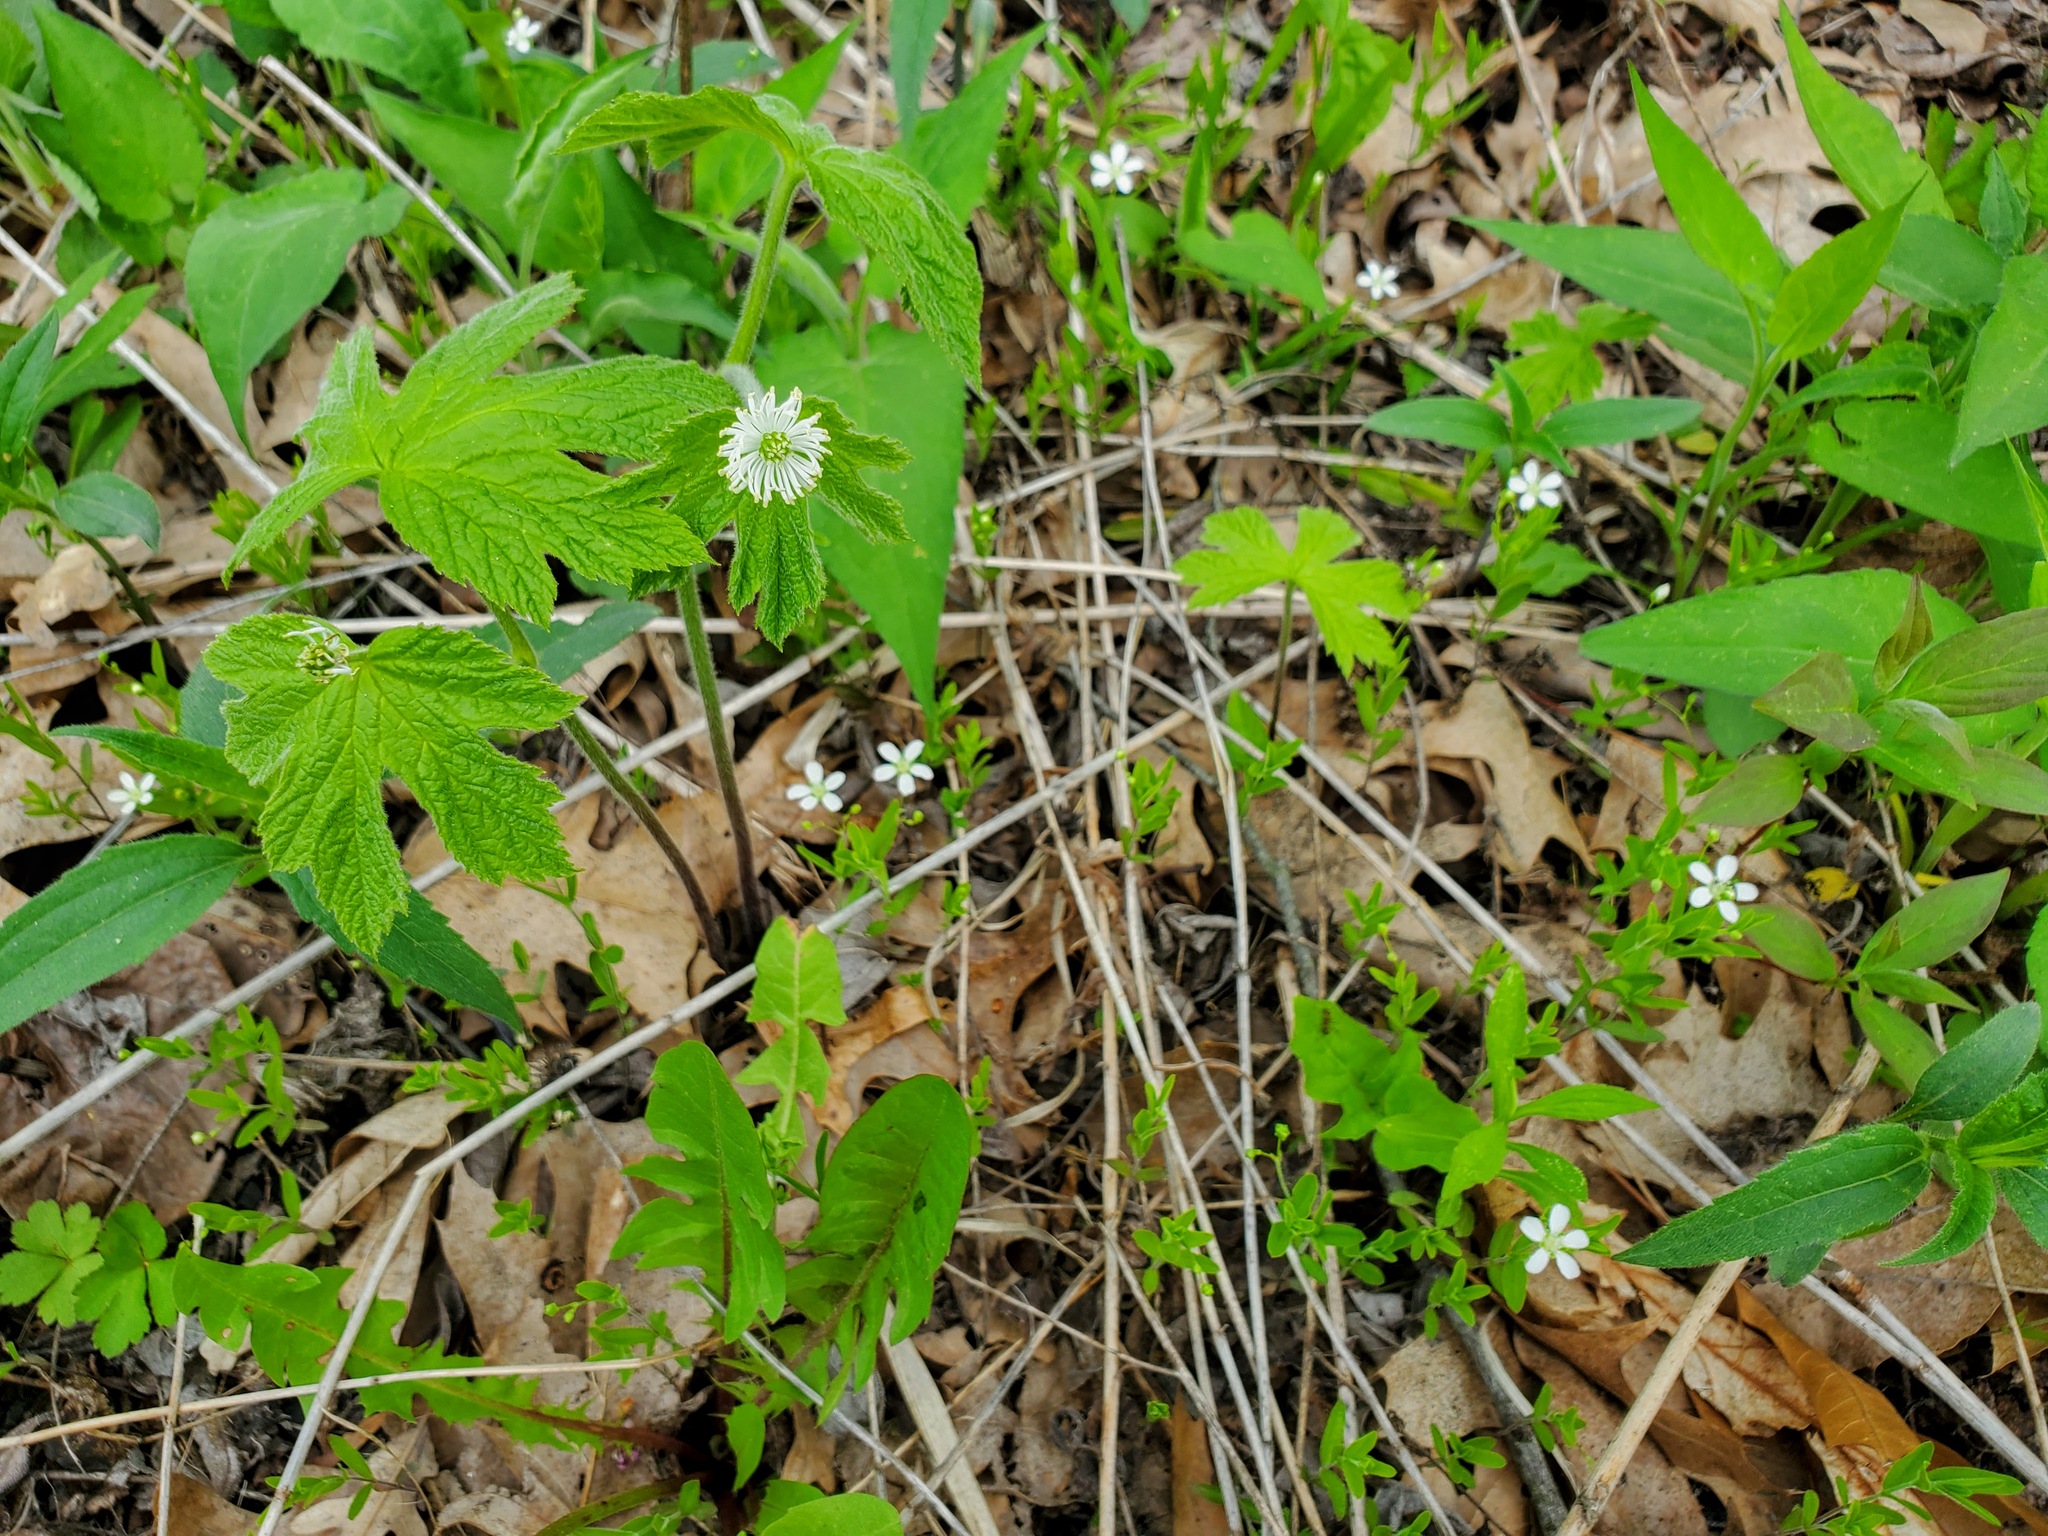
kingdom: Plantae
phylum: Tracheophyta
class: Magnoliopsida
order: Ranunculales
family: Ranunculaceae
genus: Hydrastis
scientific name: Hydrastis canadensis
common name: Goldenseal
